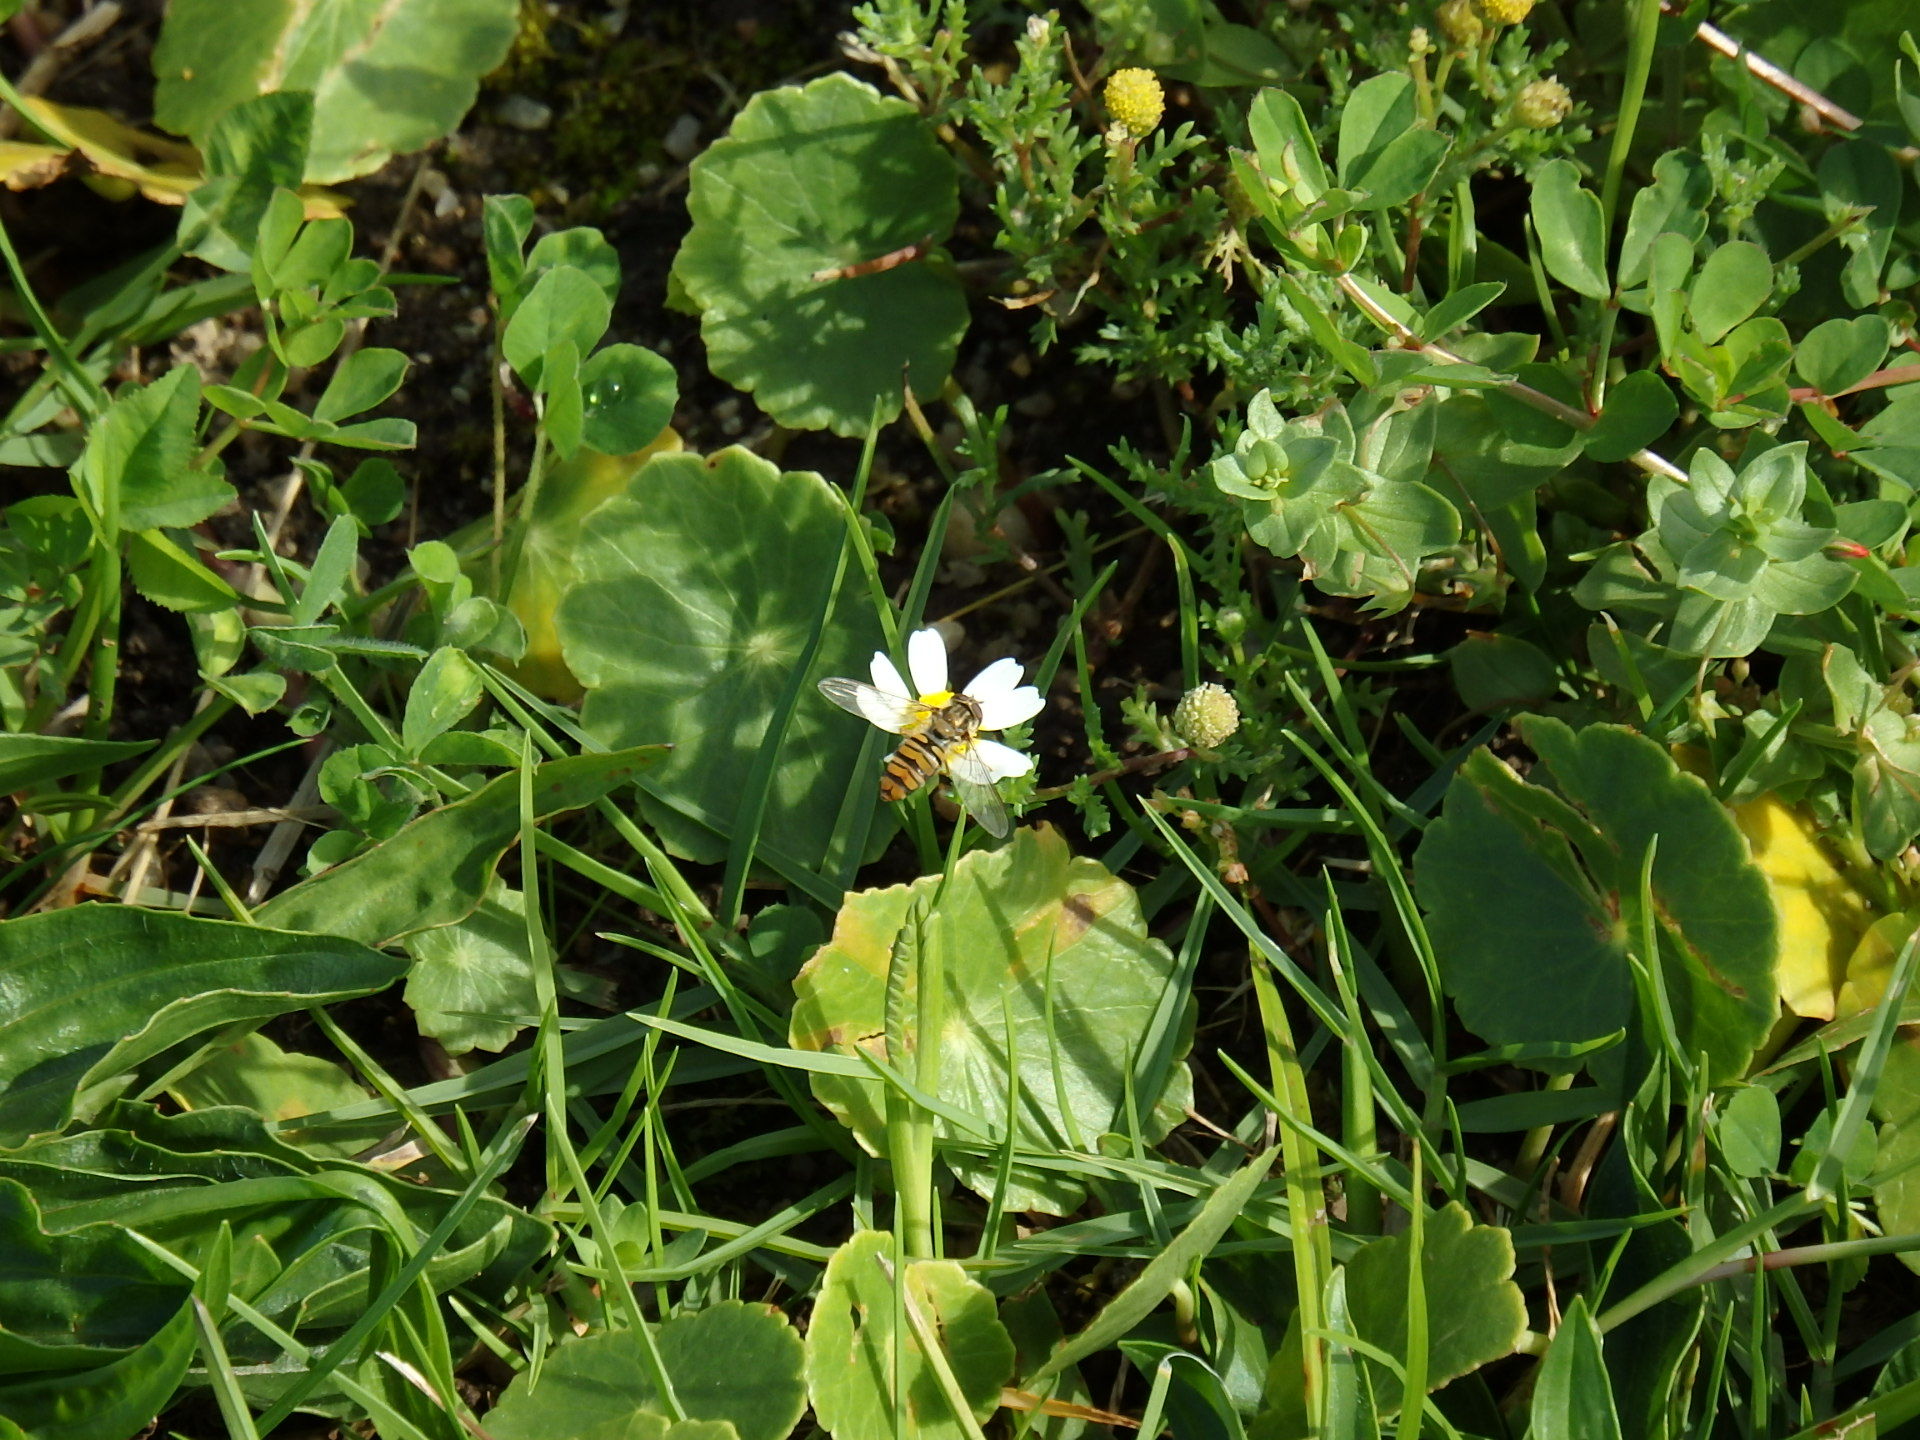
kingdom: Animalia
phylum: Arthropoda
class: Insecta
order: Diptera
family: Syrphidae
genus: Episyrphus
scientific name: Episyrphus balteatus
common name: Marmalade hoverfly
